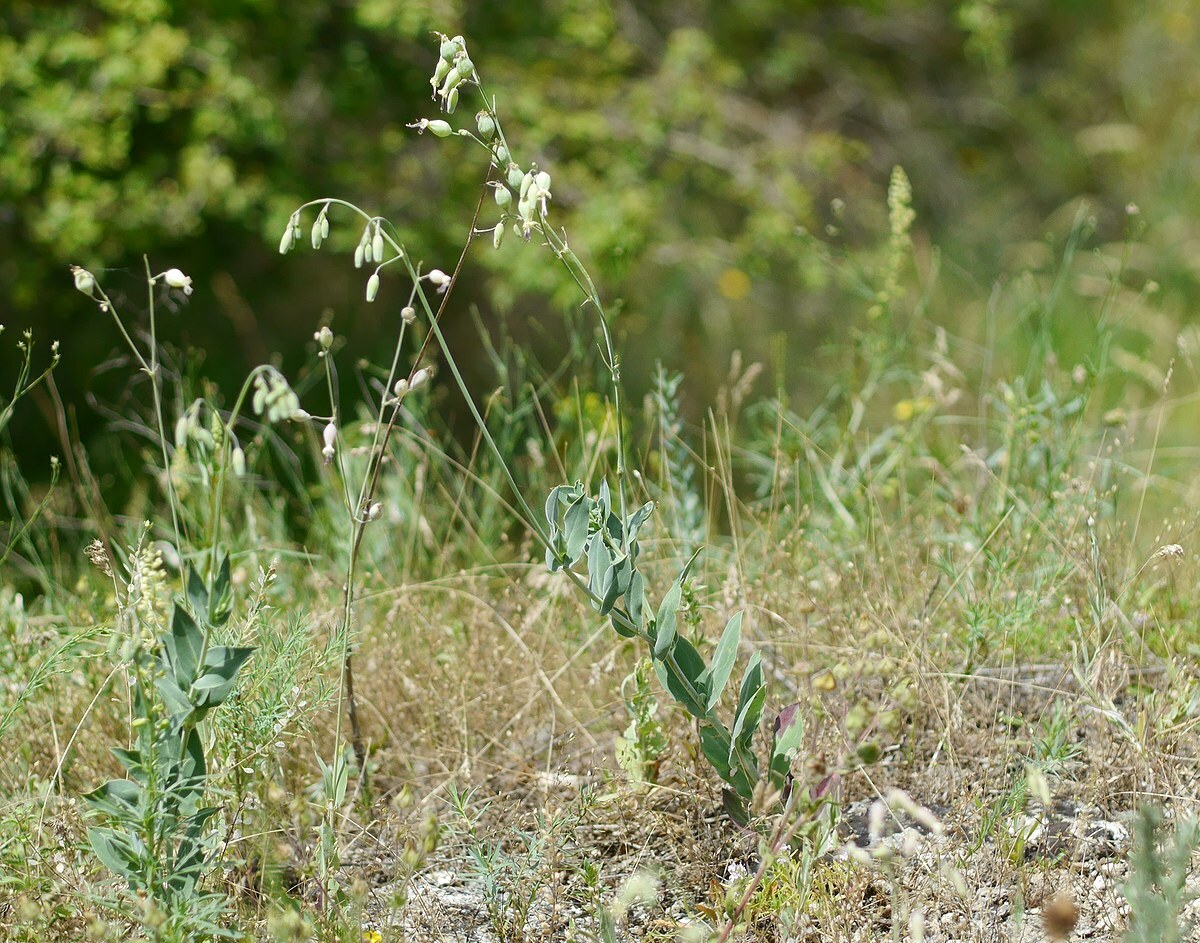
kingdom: Plantae
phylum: Tracheophyta
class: Magnoliopsida
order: Caryophyllales
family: Caryophyllaceae
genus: Silene
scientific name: Silene csereii
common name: Balkan catchfly
